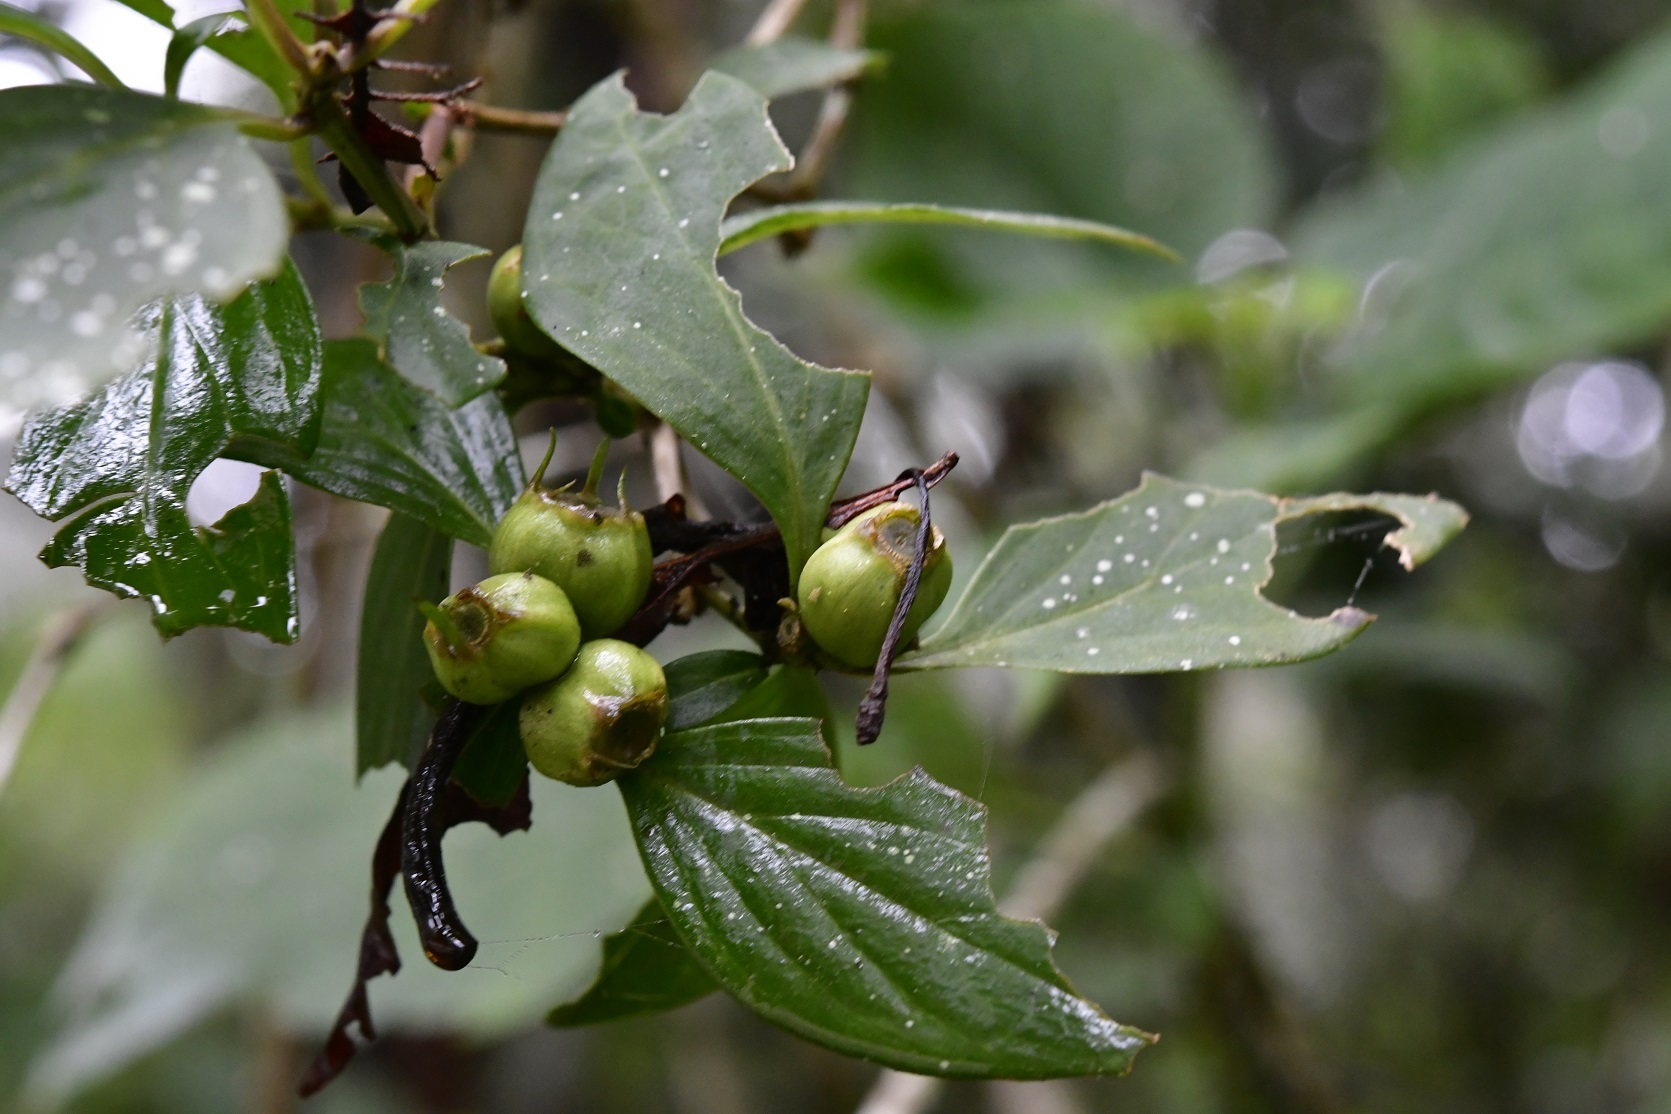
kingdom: Plantae
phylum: Tracheophyta
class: Magnoliopsida
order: Gentianales
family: Rubiaceae
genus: Bouvardia
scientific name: Bouvardia dictyoneura
